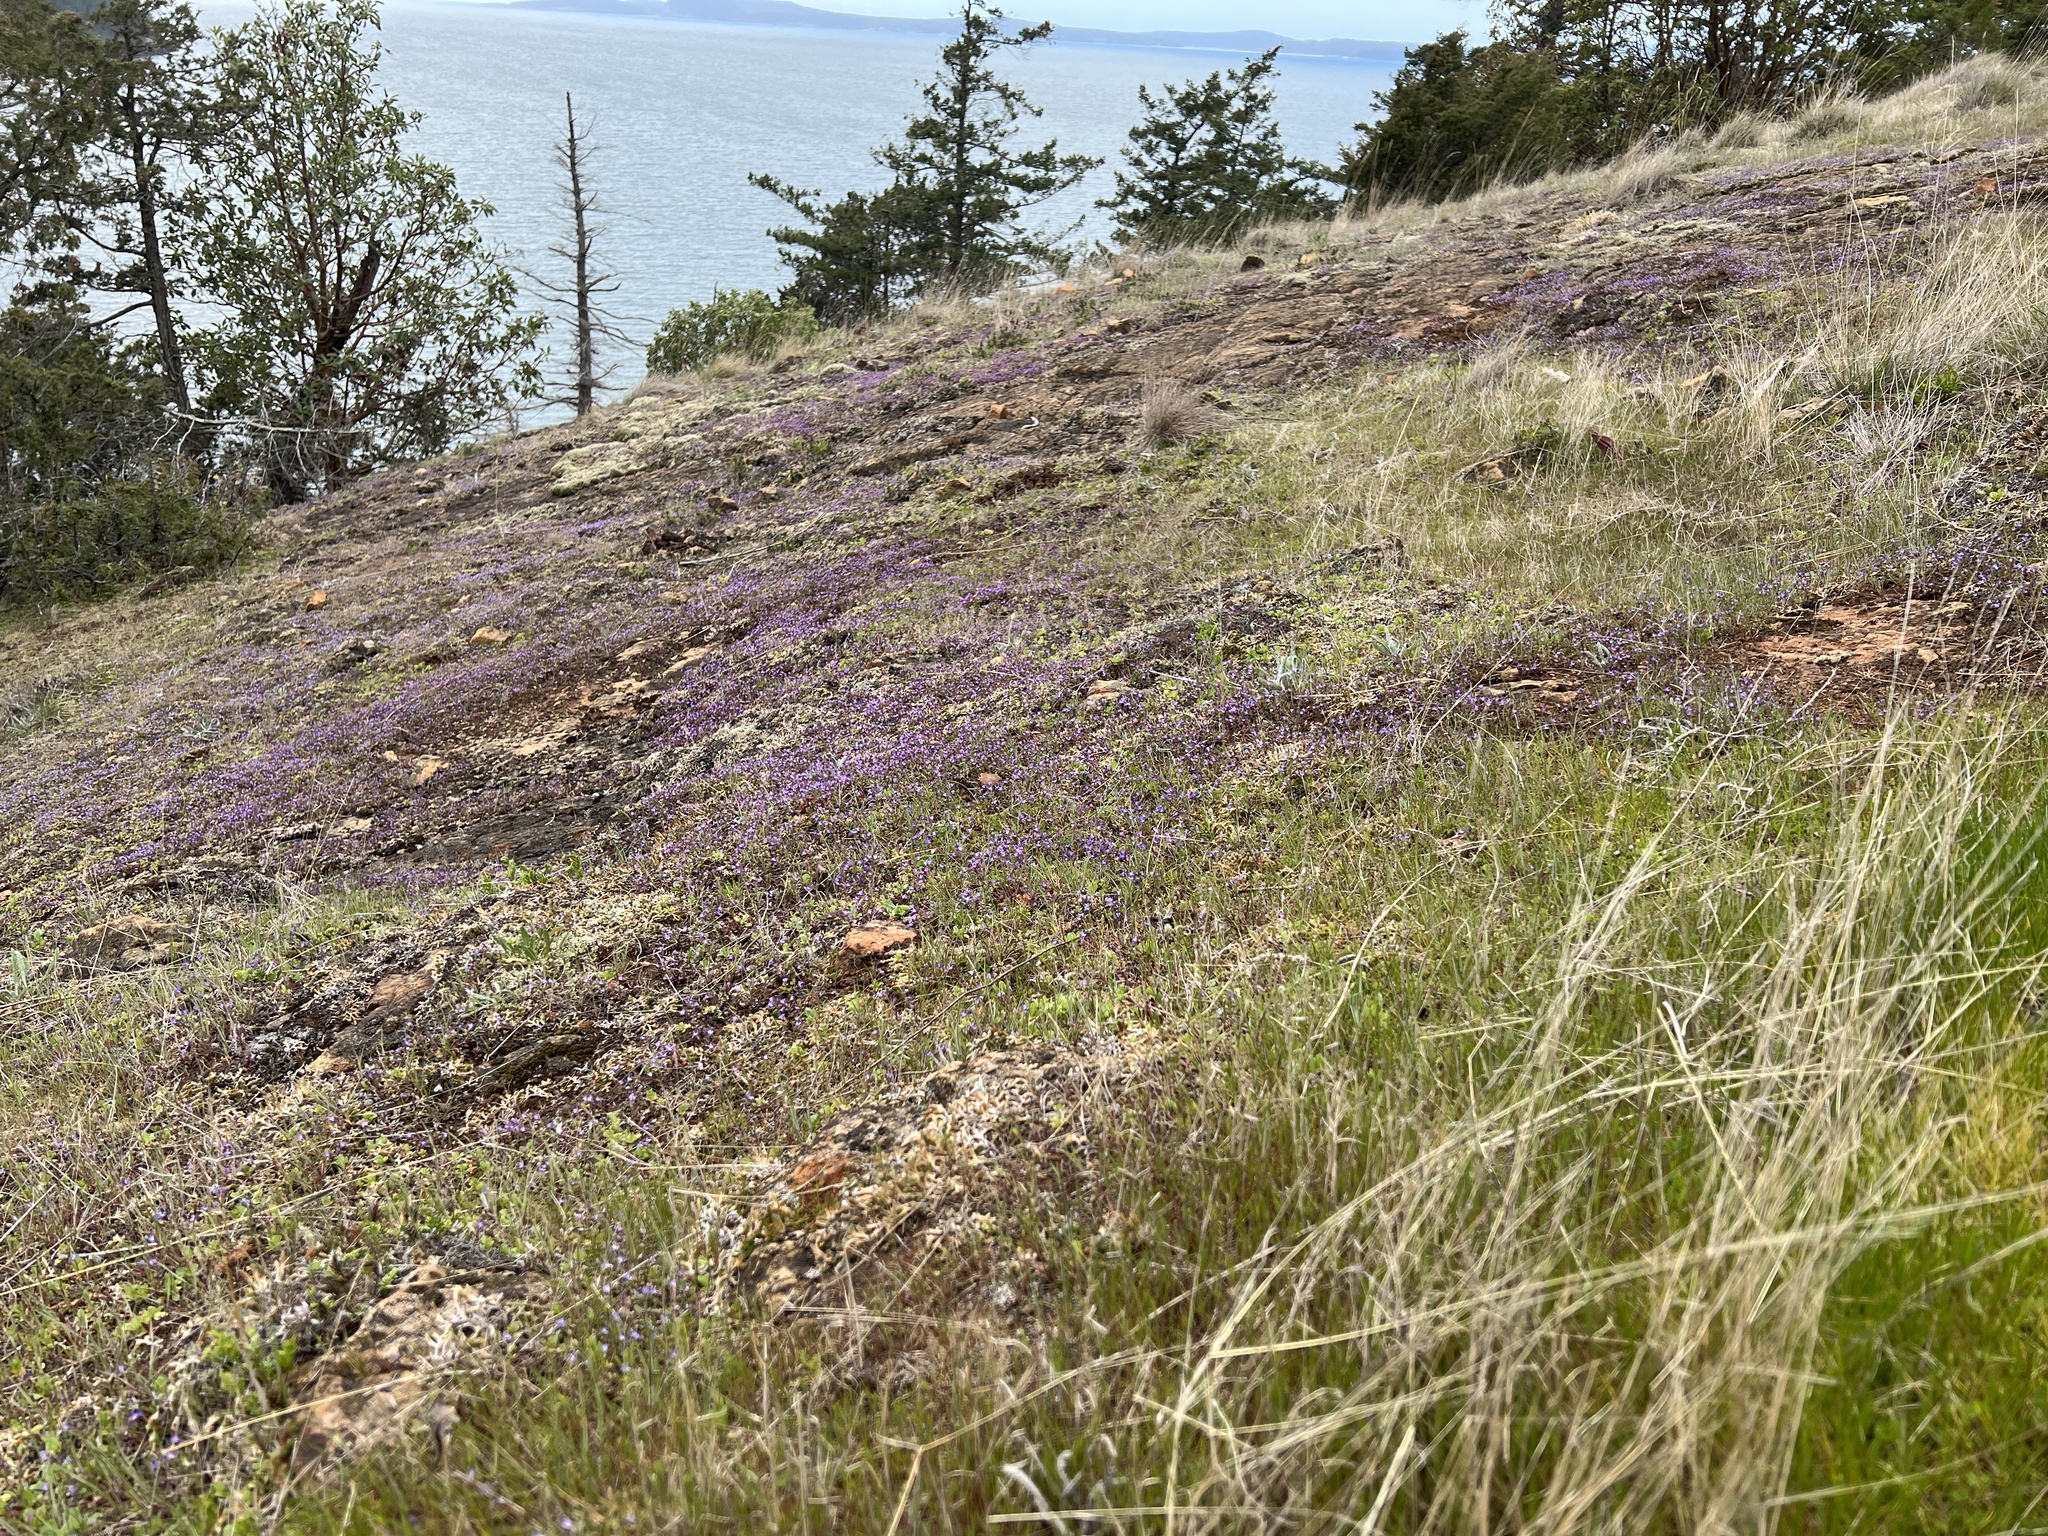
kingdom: Plantae
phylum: Tracheophyta
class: Magnoliopsida
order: Lamiales
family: Plantaginaceae
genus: Collinsia
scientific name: Collinsia parviflora
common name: Blue-lips
